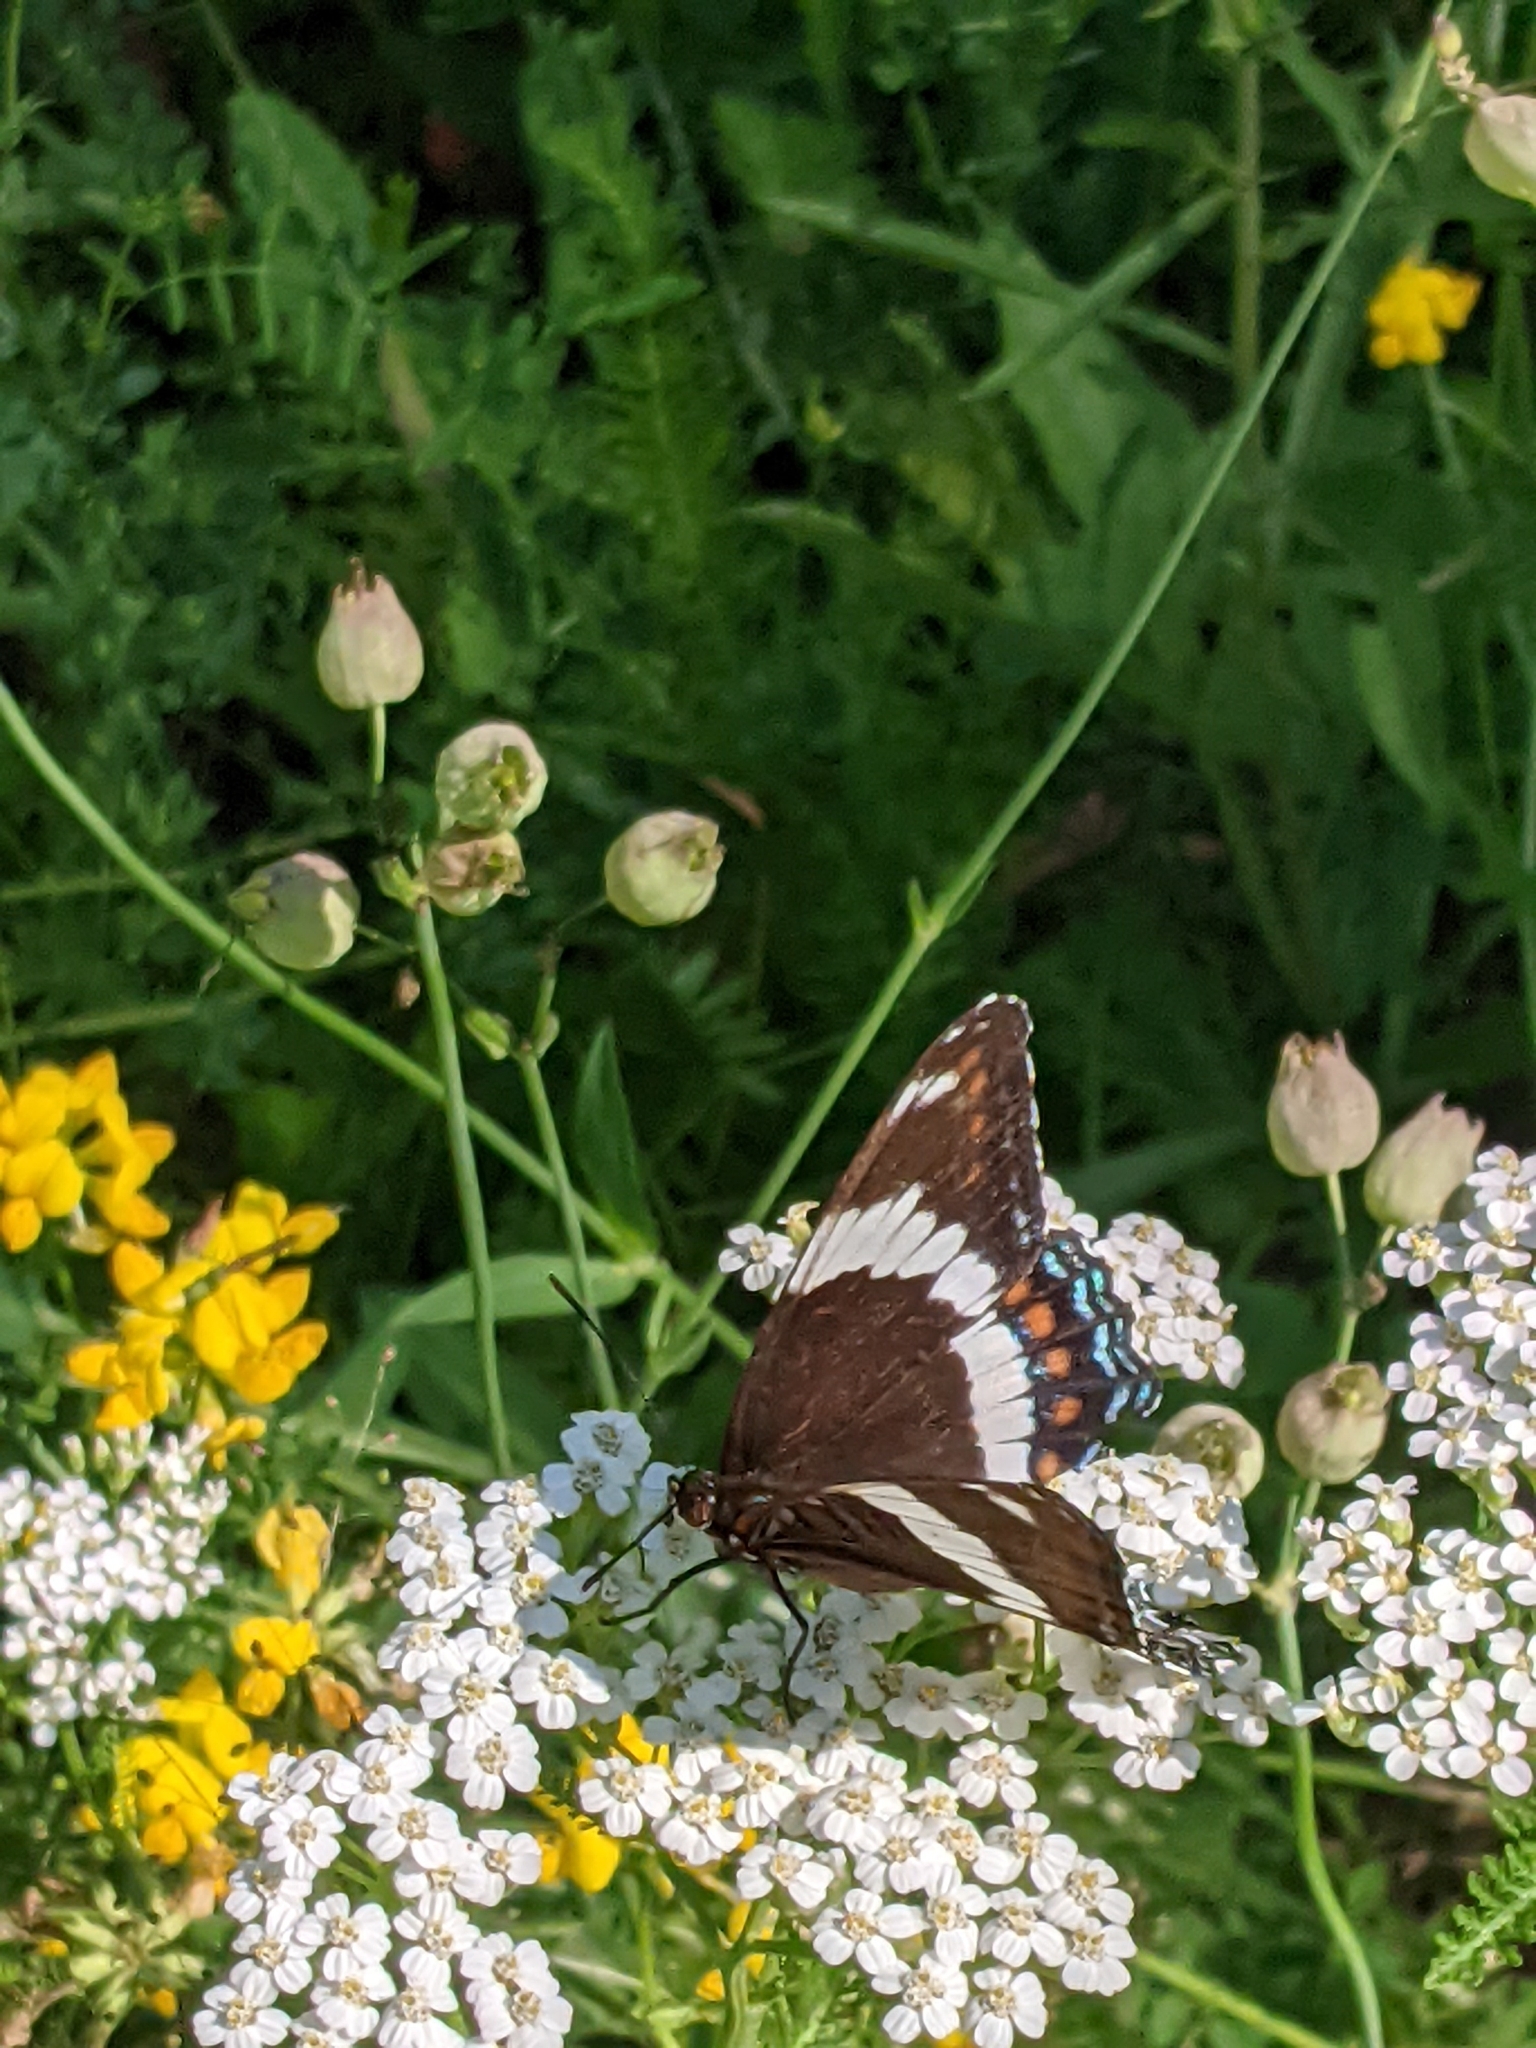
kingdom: Animalia
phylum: Arthropoda
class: Insecta
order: Lepidoptera
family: Nymphalidae
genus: Limenitis
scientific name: Limenitis arthemis
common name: Red-spotted admiral
